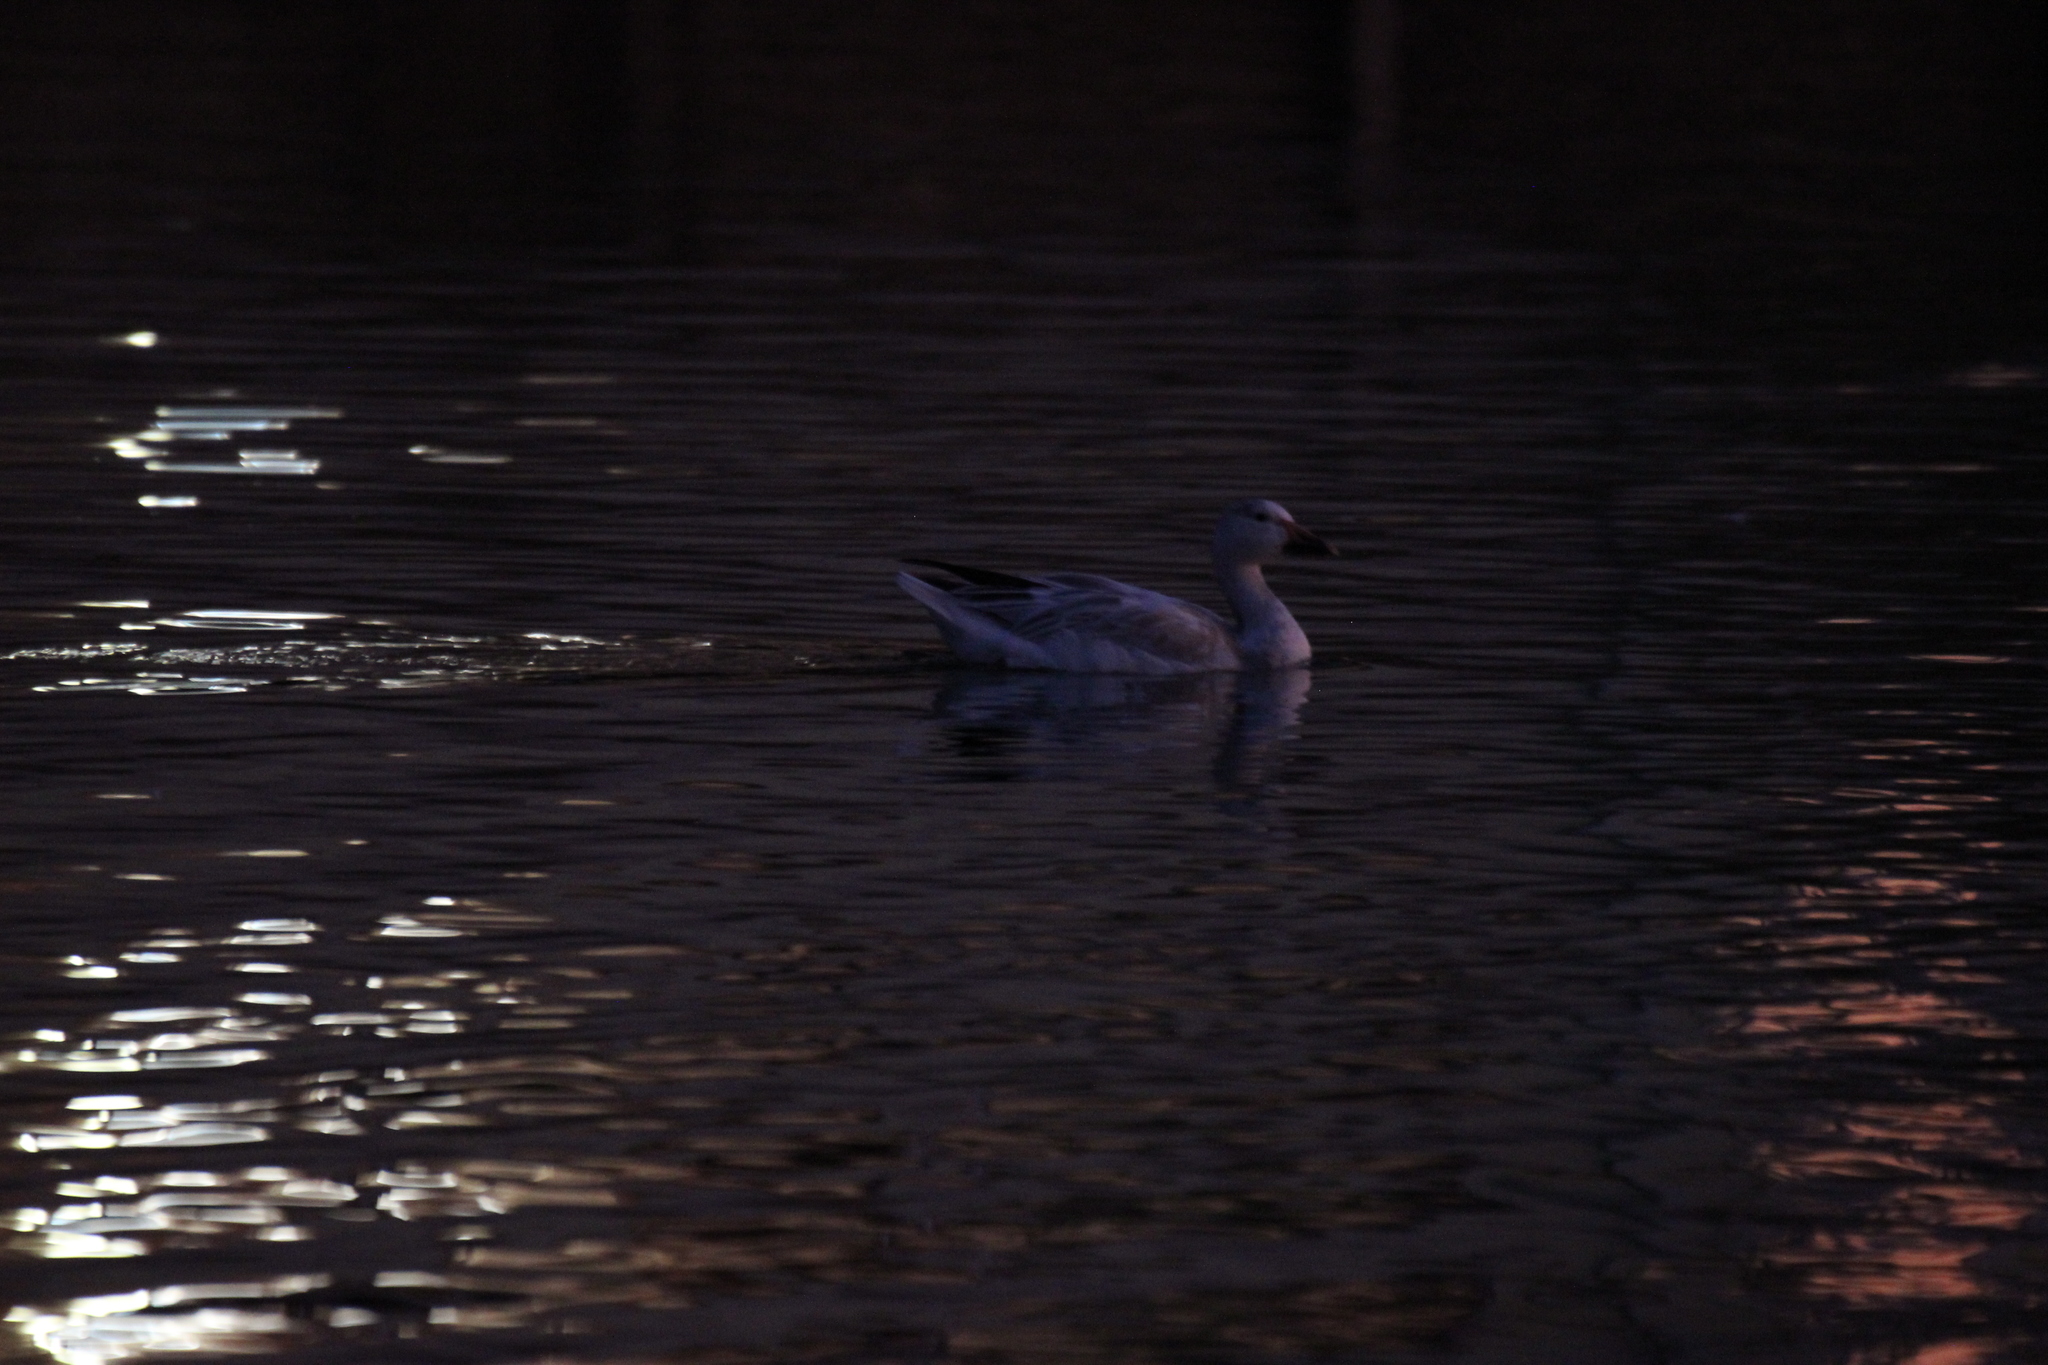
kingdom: Animalia
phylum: Chordata
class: Aves
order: Anseriformes
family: Anatidae
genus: Anser
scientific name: Anser caerulescens
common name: Snow goose
